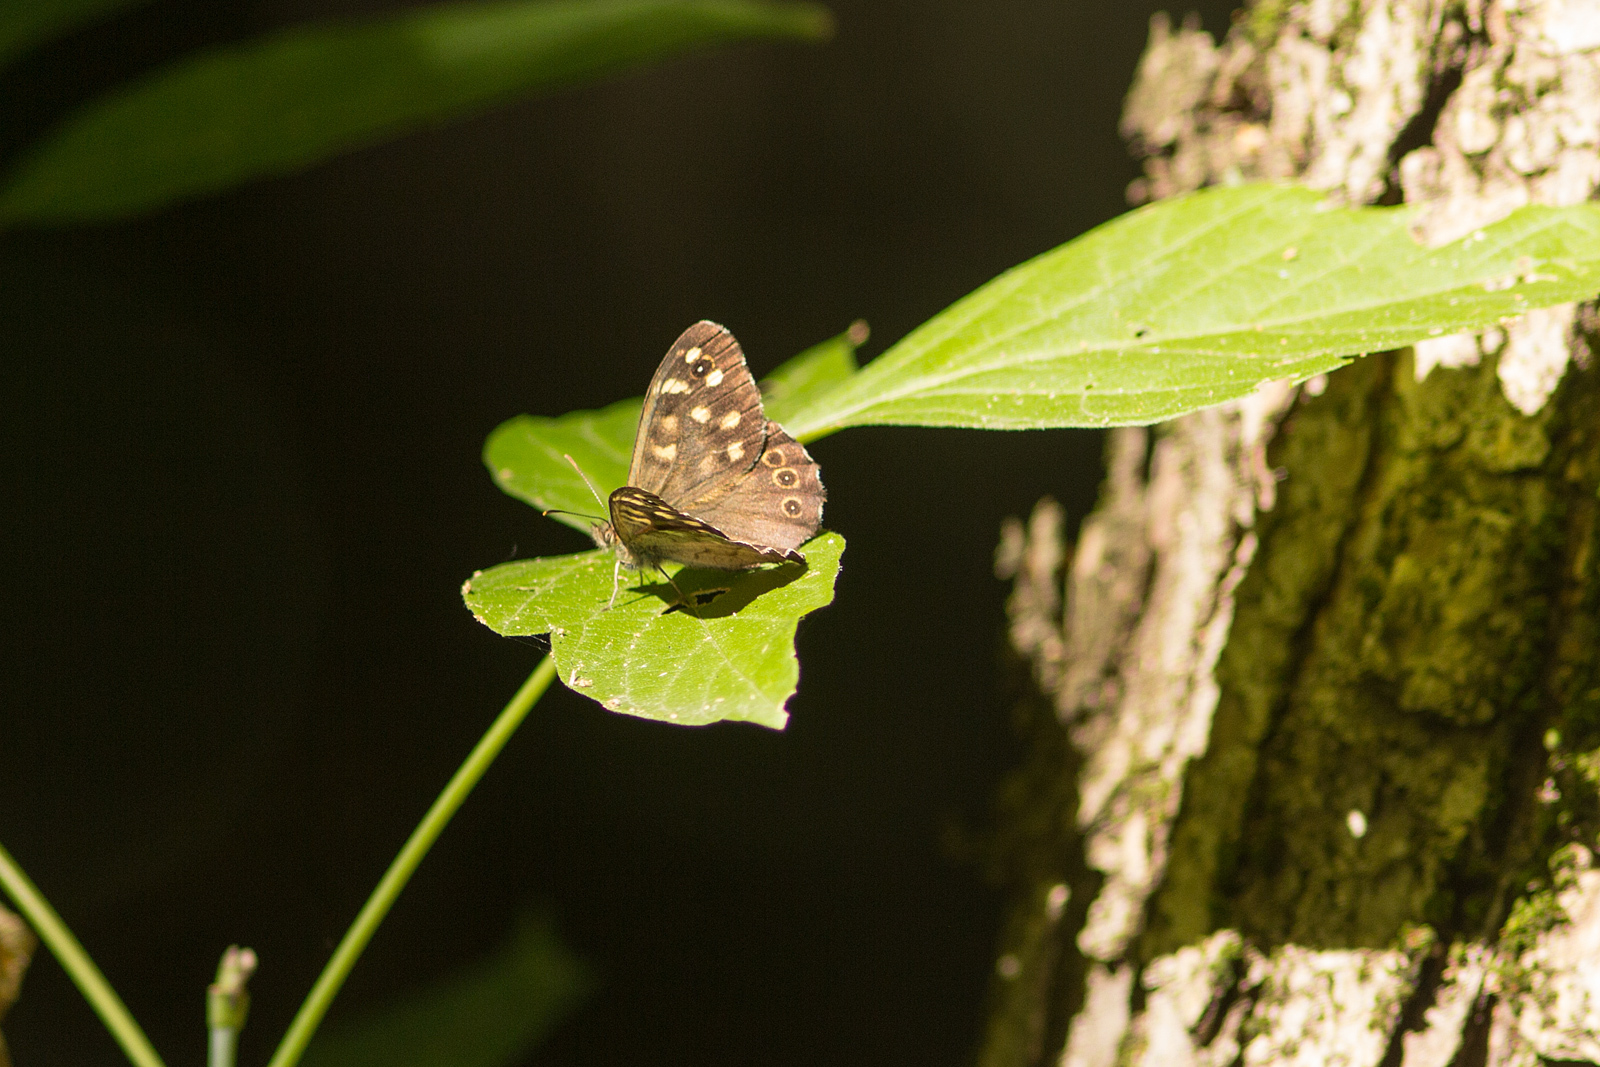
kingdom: Animalia
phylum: Arthropoda
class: Insecta
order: Lepidoptera
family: Nymphalidae
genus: Pararge
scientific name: Pararge aegeria
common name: Speckled wood
